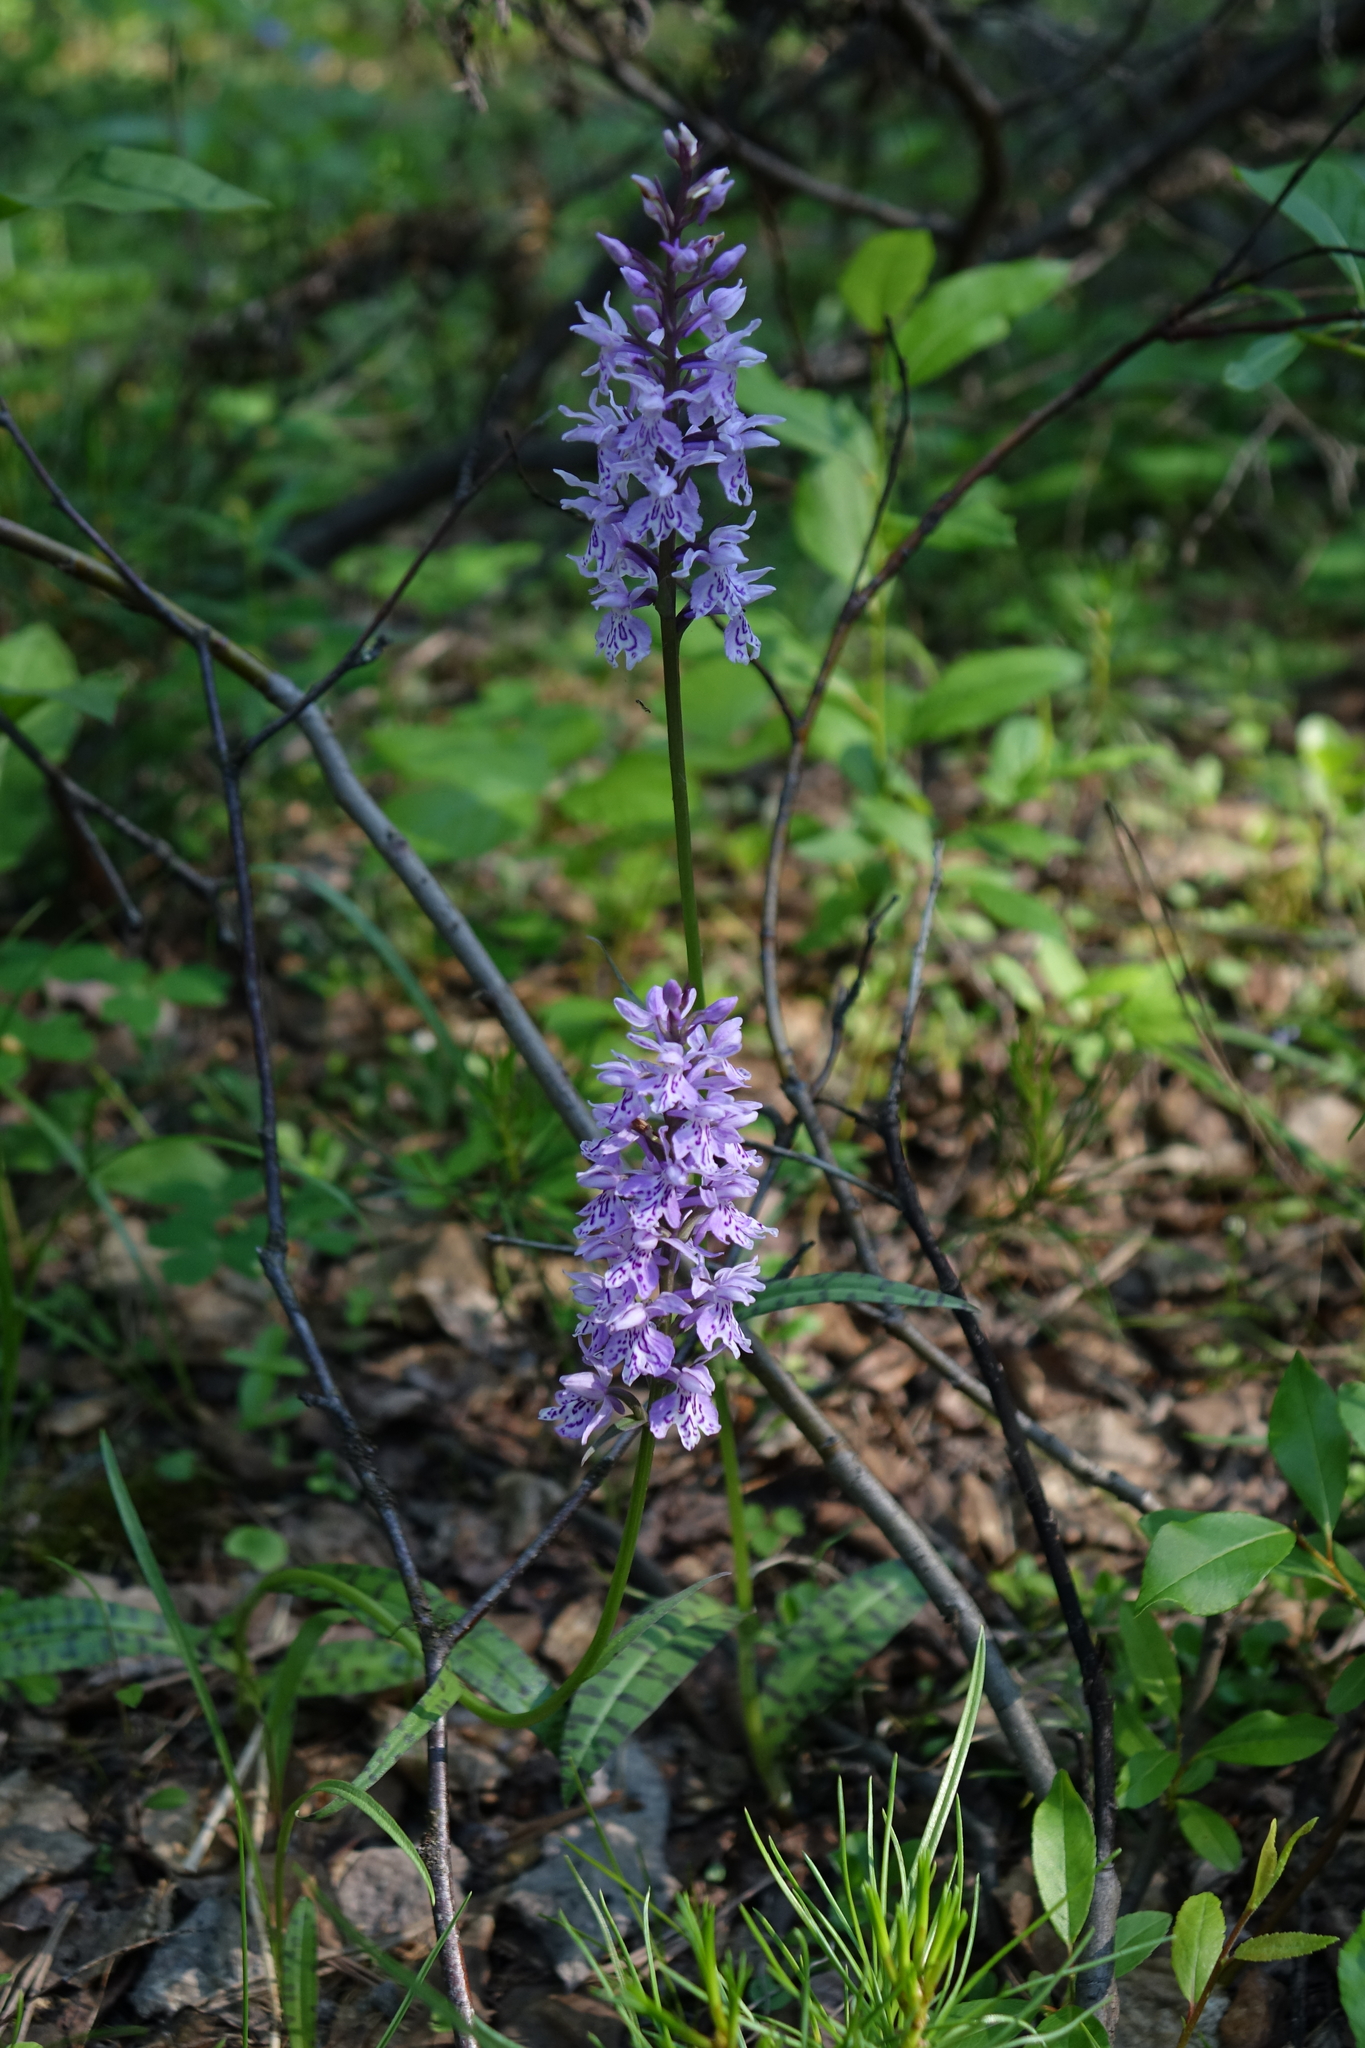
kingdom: Plantae
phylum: Tracheophyta
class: Liliopsida
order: Asparagales
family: Orchidaceae
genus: Dactylorhiza
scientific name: Dactylorhiza maculata
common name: Heath spotted-orchid
